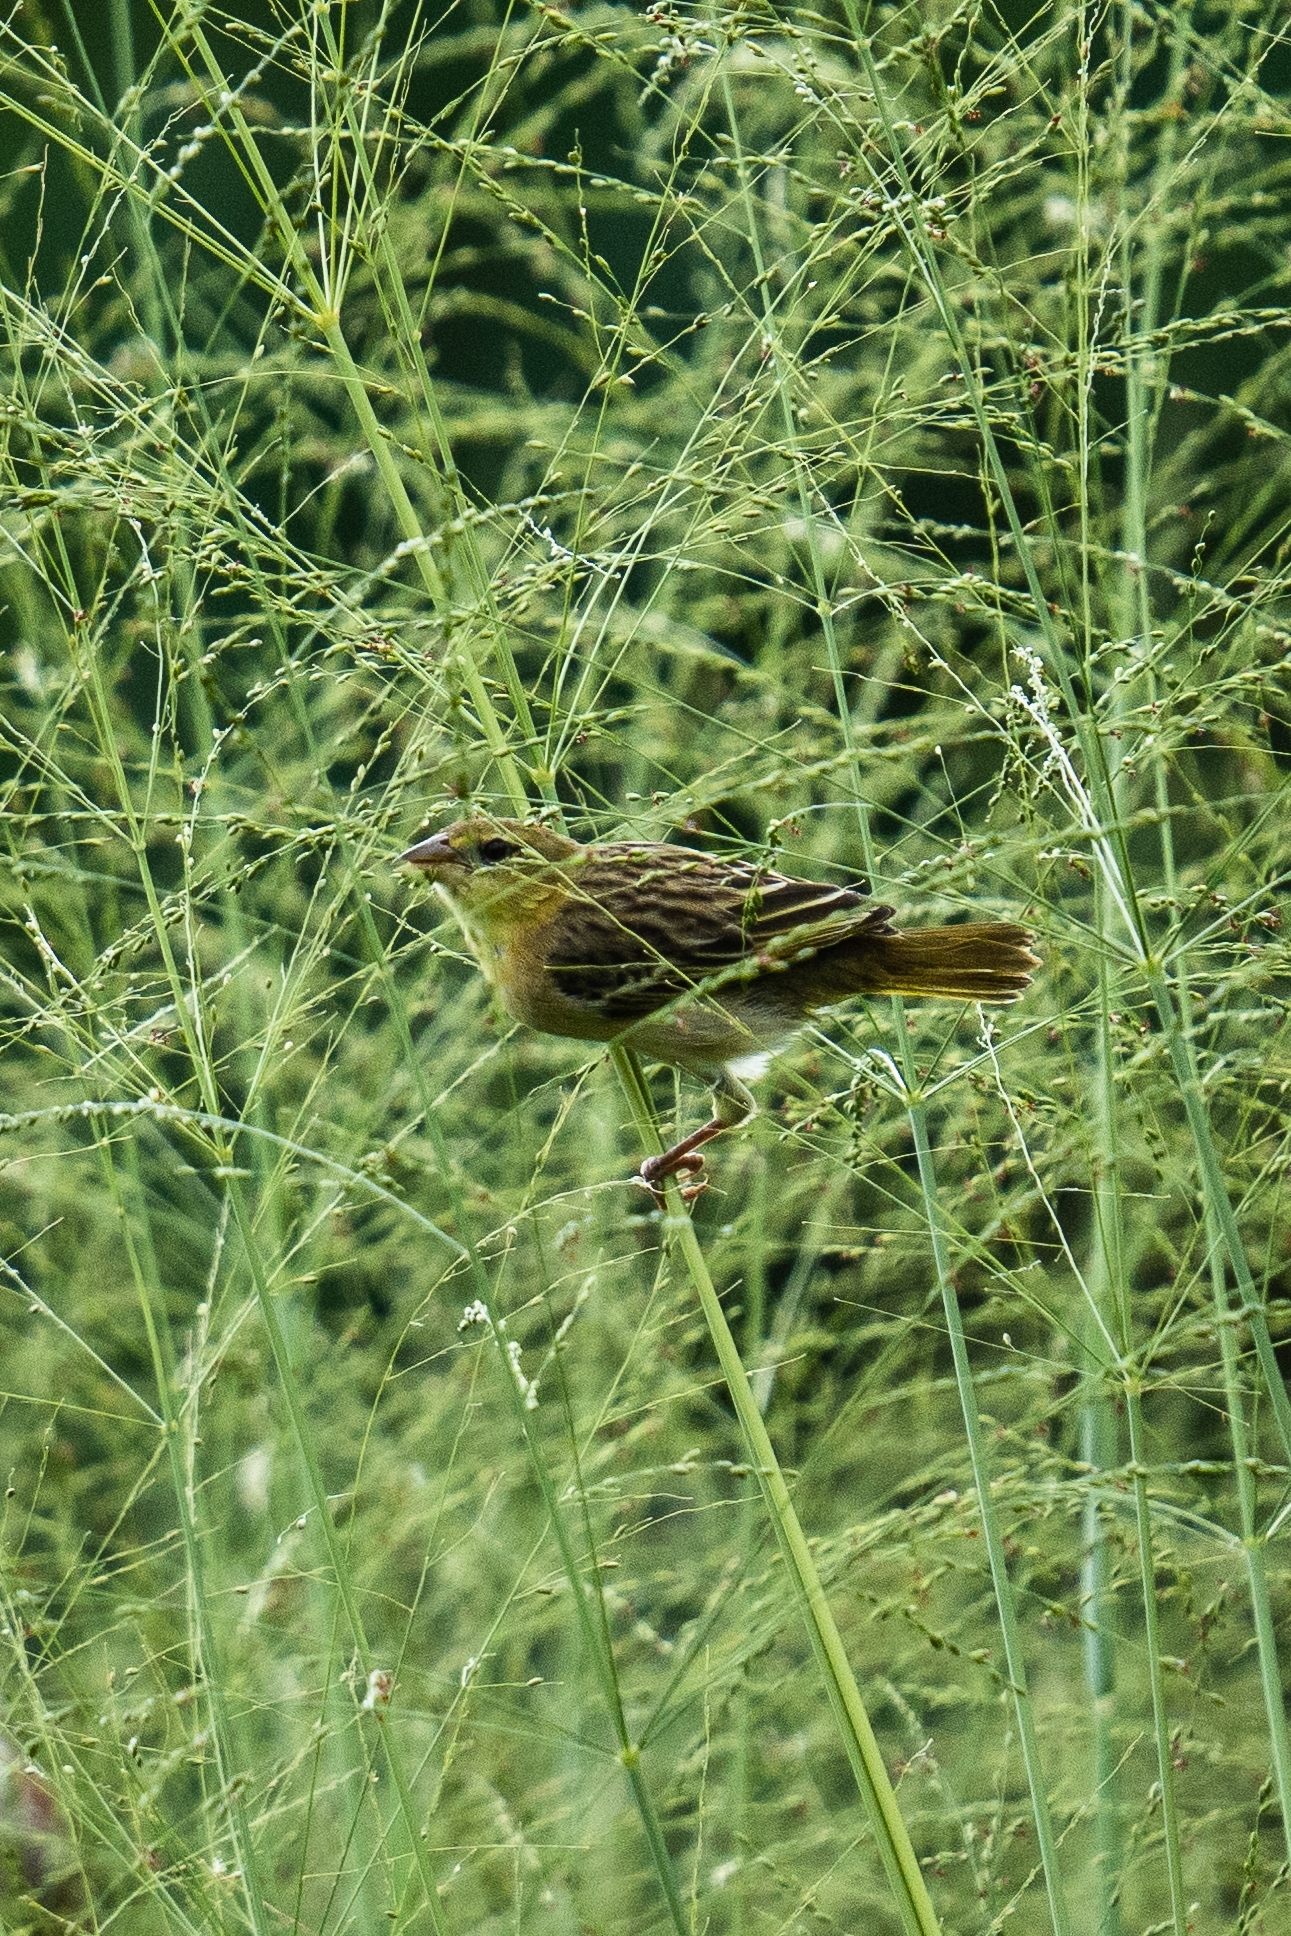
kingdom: Animalia
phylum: Chordata
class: Aves
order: Passeriformes
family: Ploceidae
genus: Ploceus
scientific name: Ploceus jacksoni
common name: Golden-backed weaver
